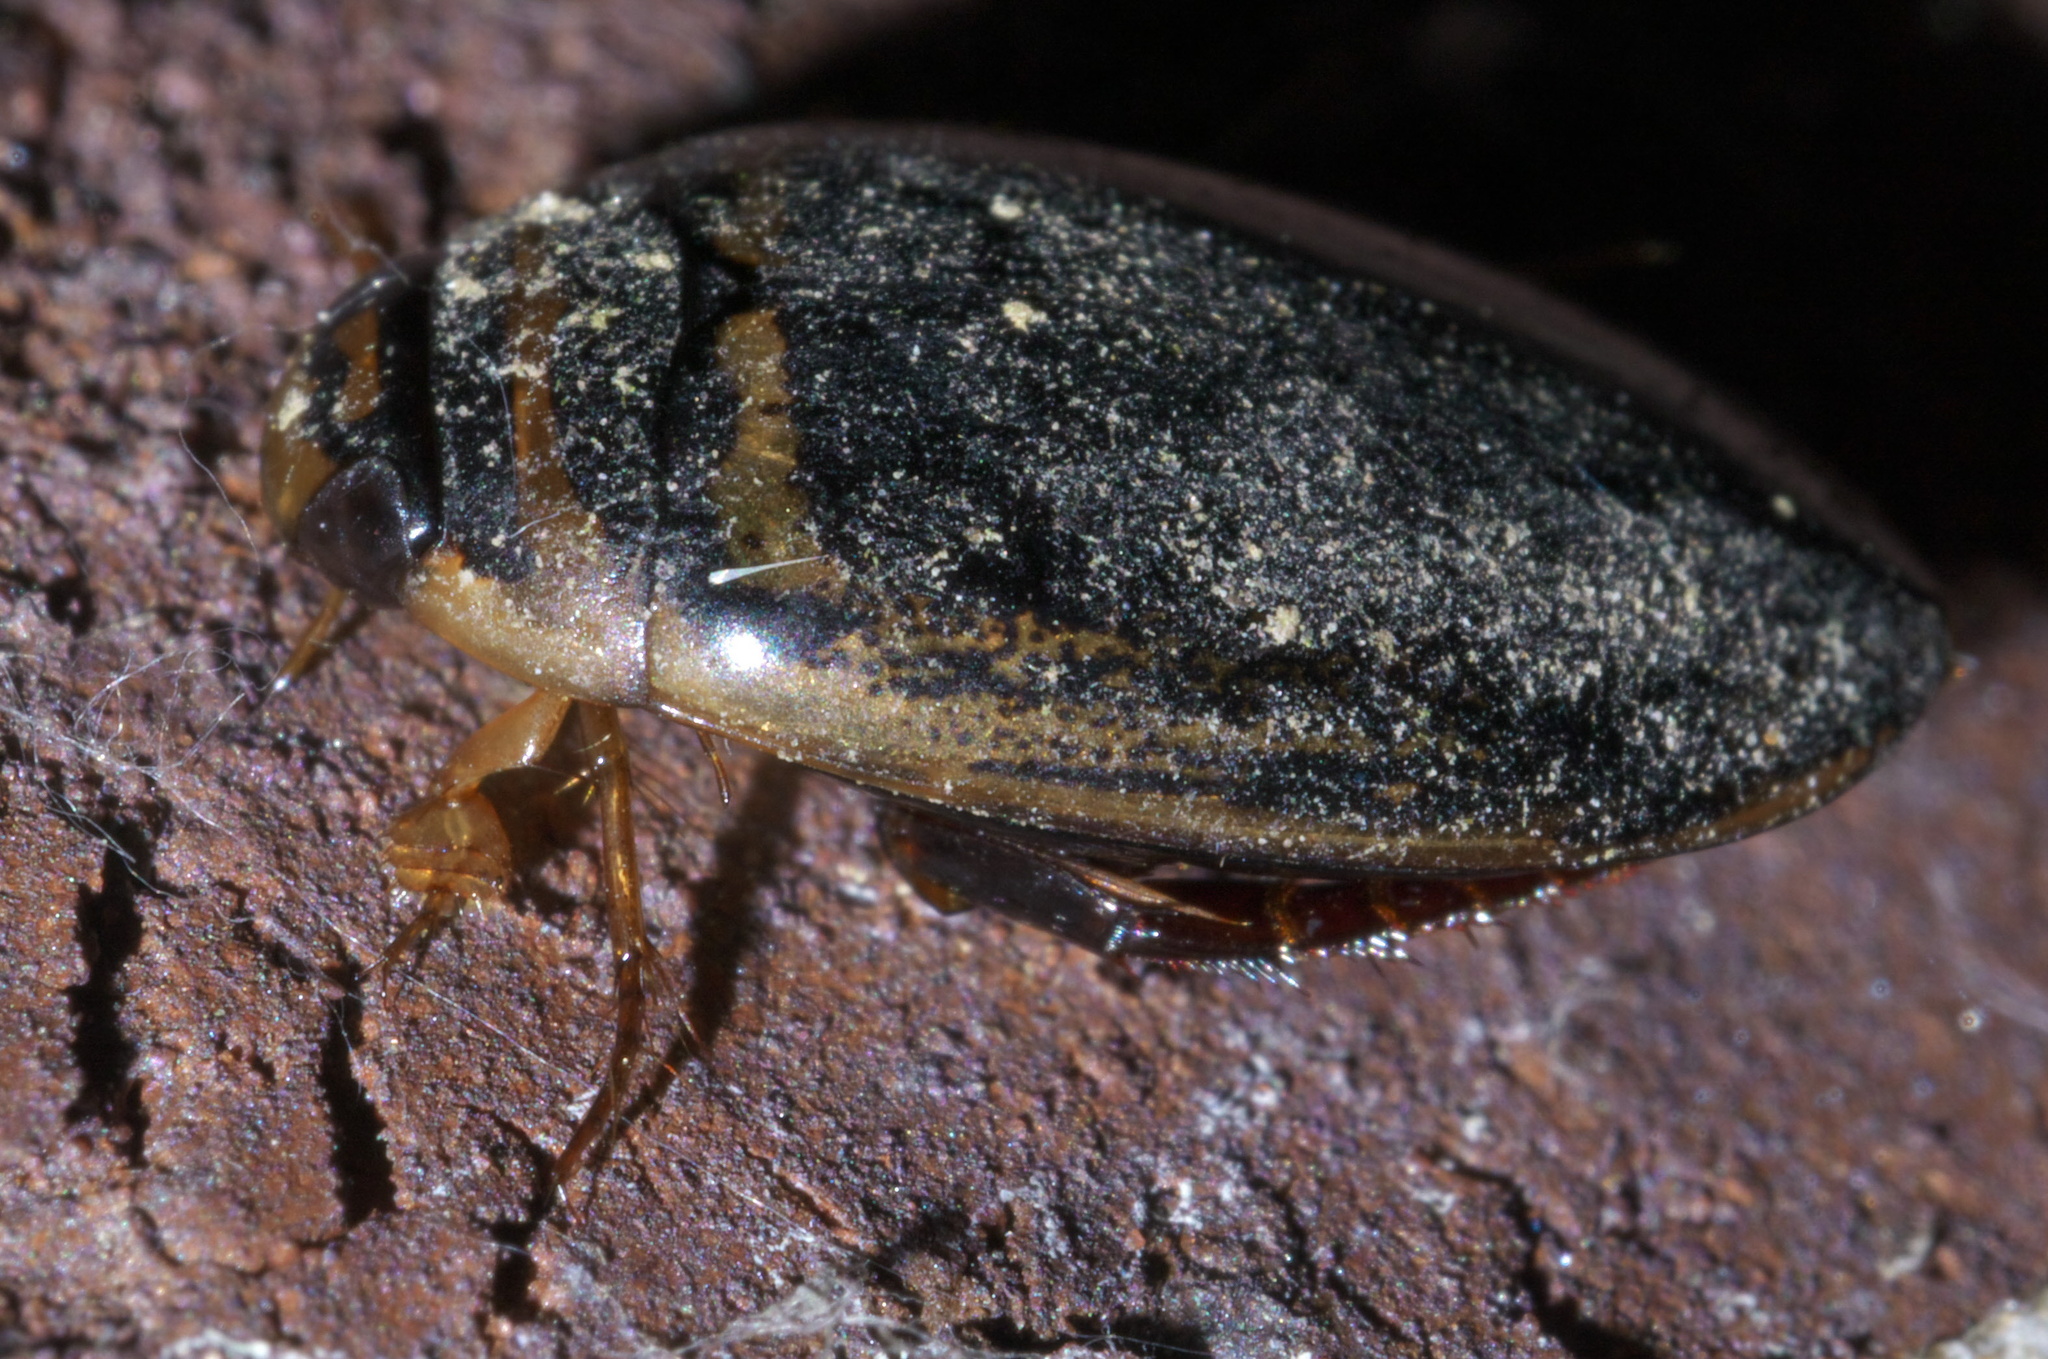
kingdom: Animalia
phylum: Arthropoda
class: Insecta
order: Coleoptera
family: Dytiscidae
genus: Thermonectus
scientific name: Thermonectus basillaris
